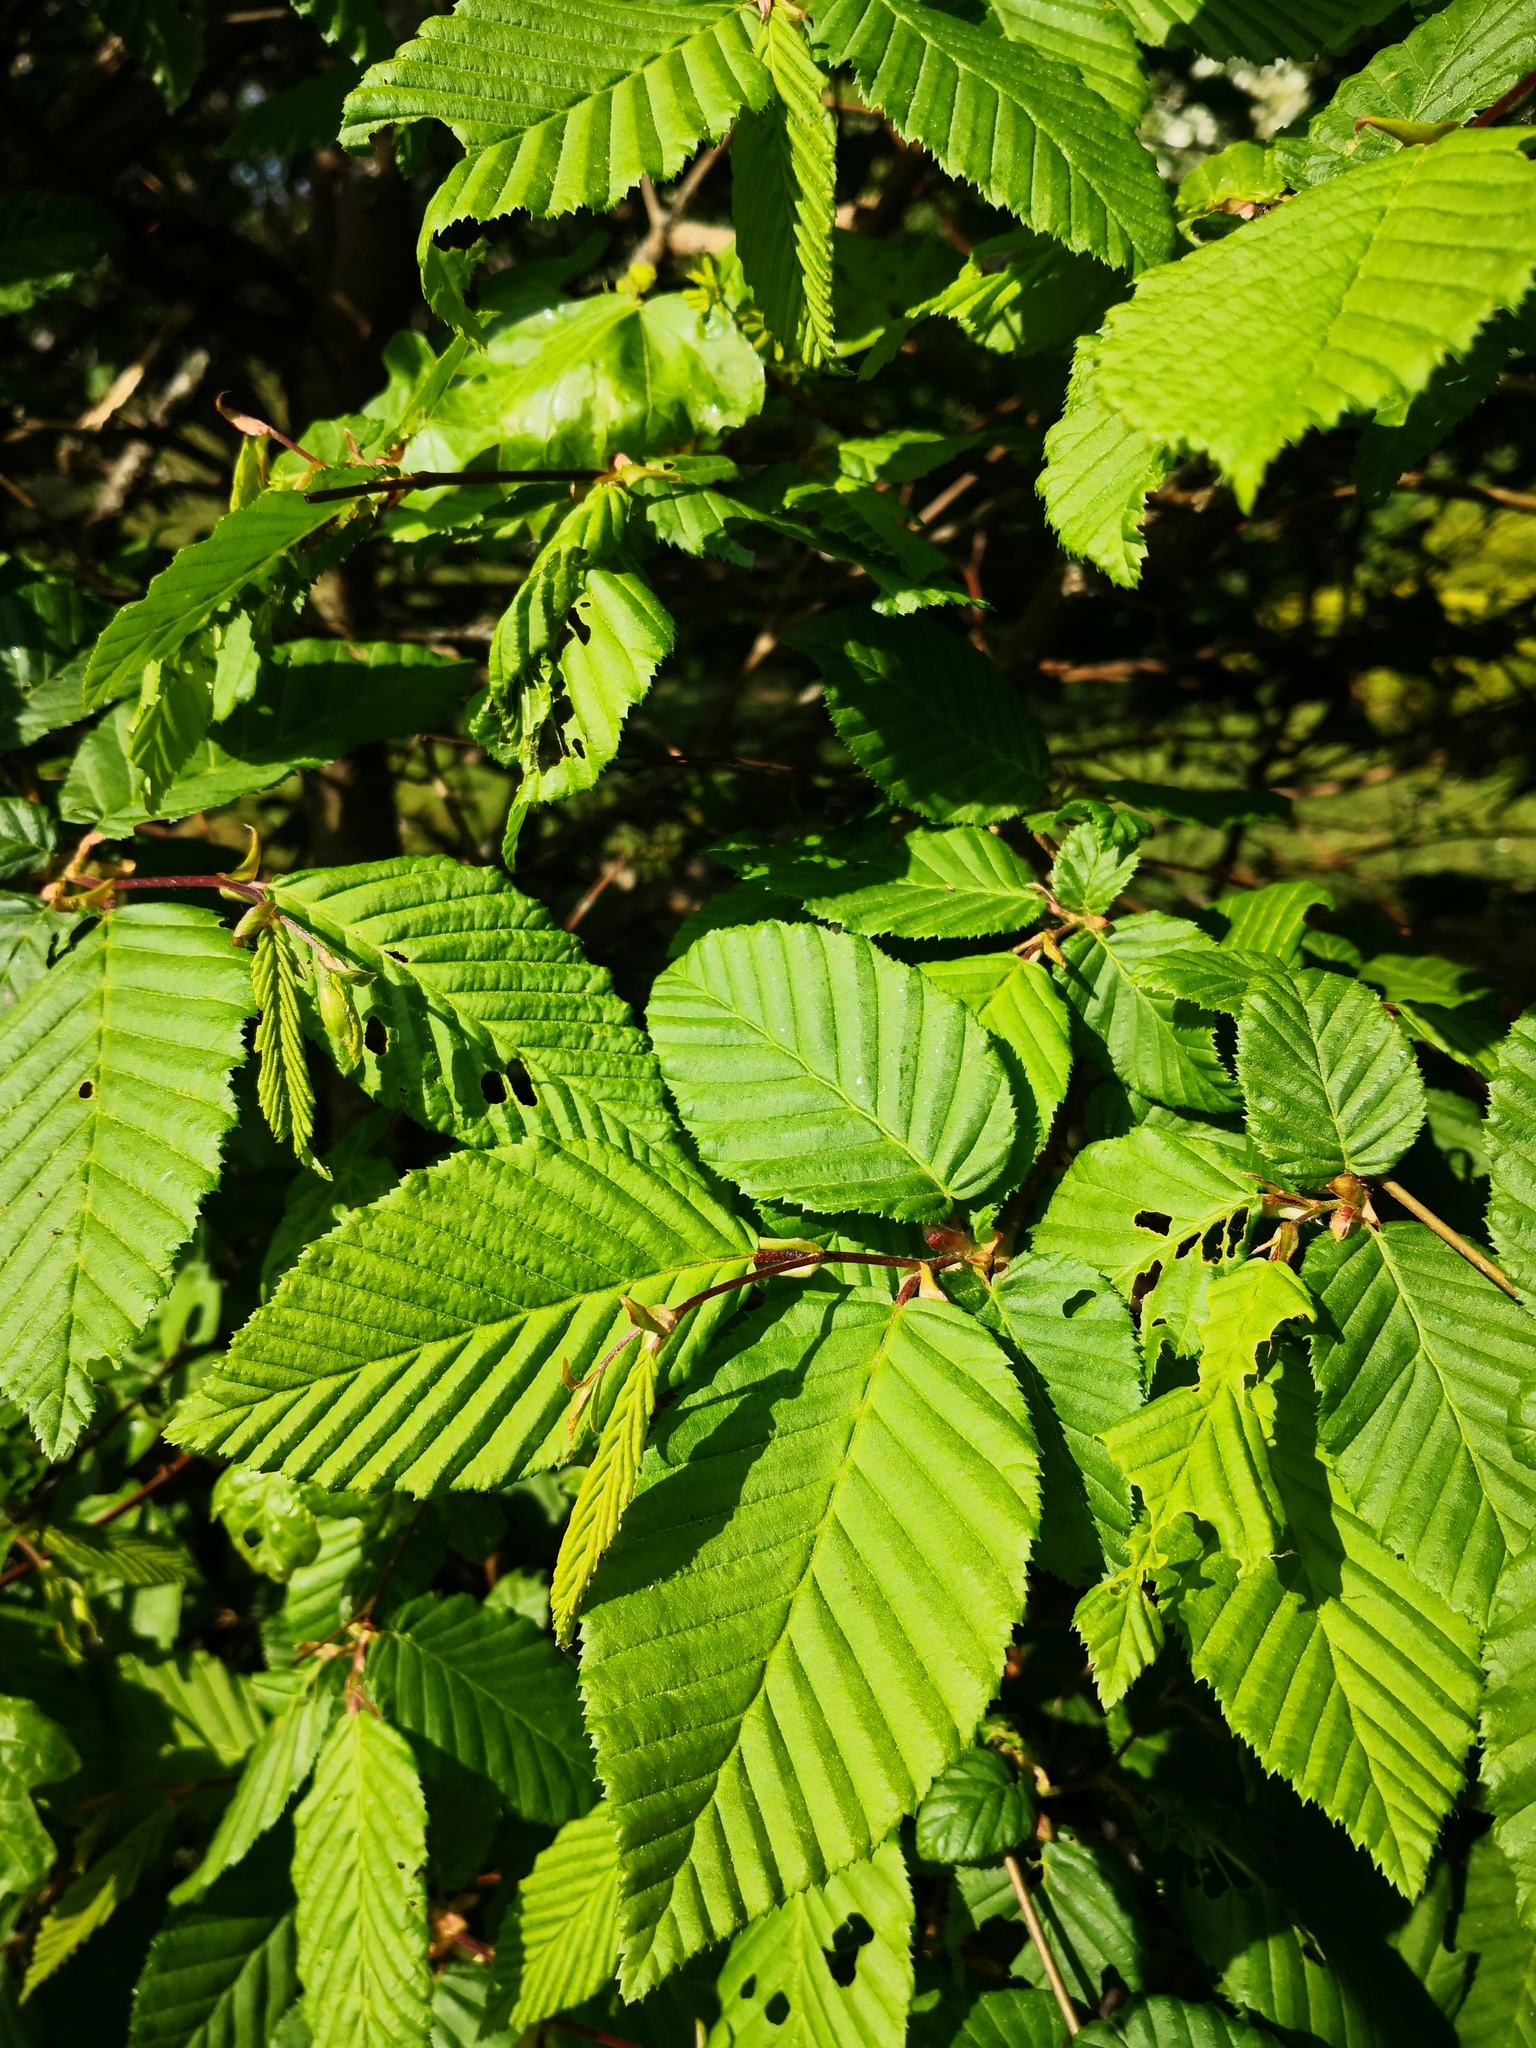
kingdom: Plantae
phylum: Tracheophyta
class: Magnoliopsida
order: Fagales
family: Betulaceae
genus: Carpinus
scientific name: Carpinus betulus
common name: Hornbeam
